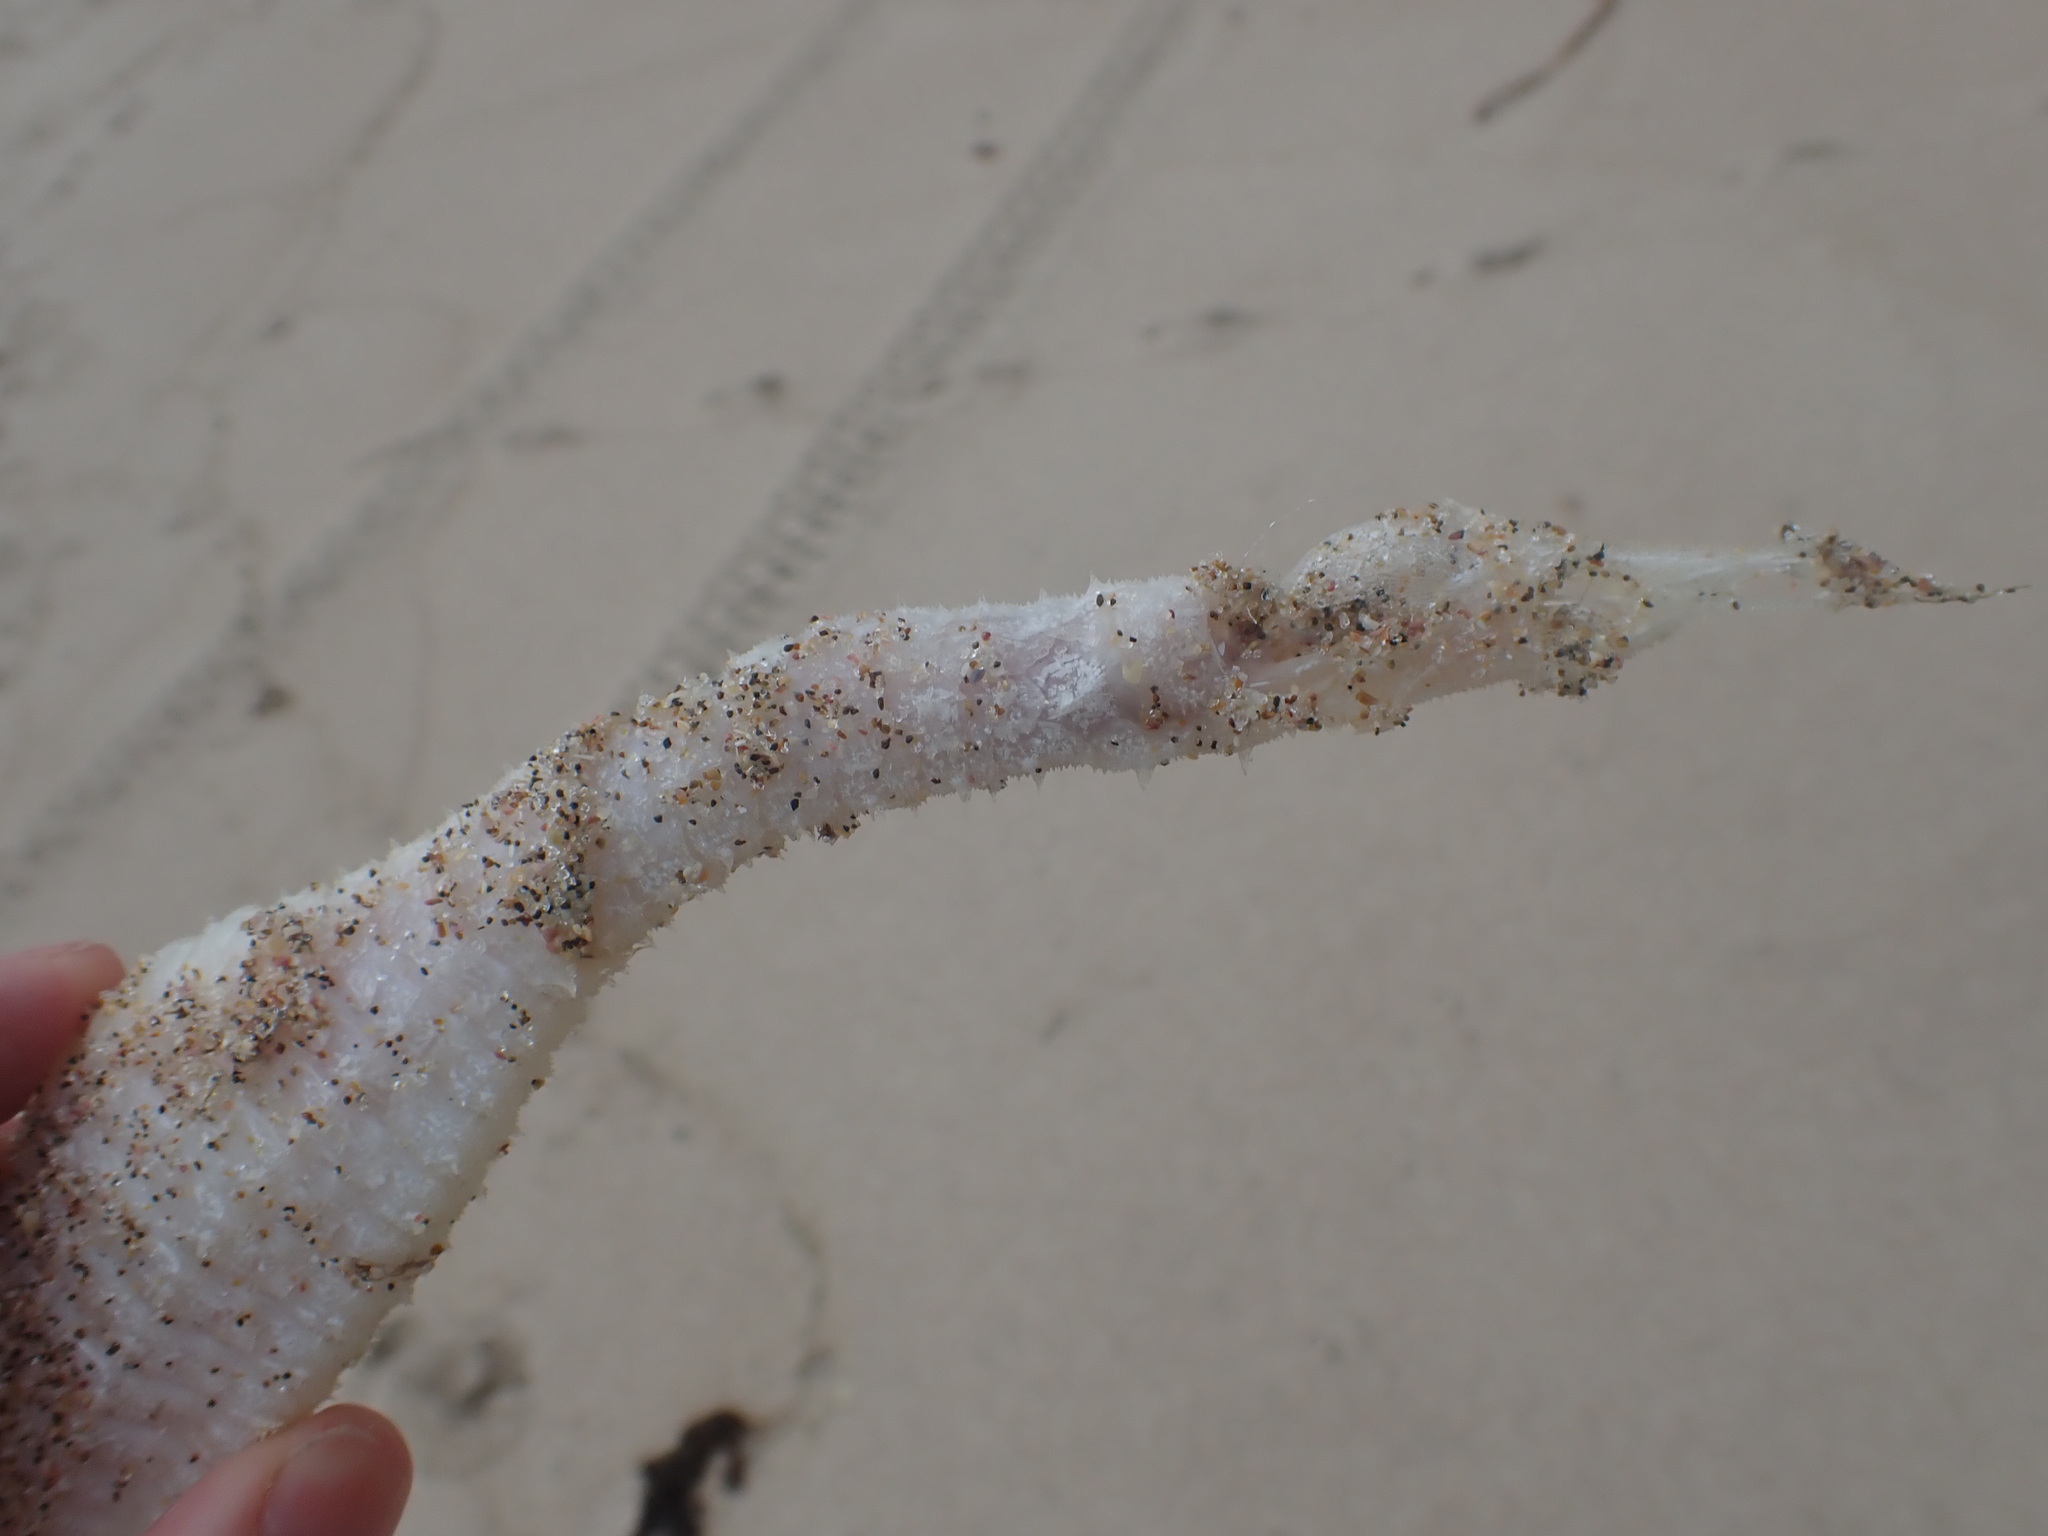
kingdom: Animalia
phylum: Chordata
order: Syngnathiformes
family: Syngnathidae
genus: Solegnathus
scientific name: Solegnathus spinosissimus
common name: Australian spiny pipehorse
